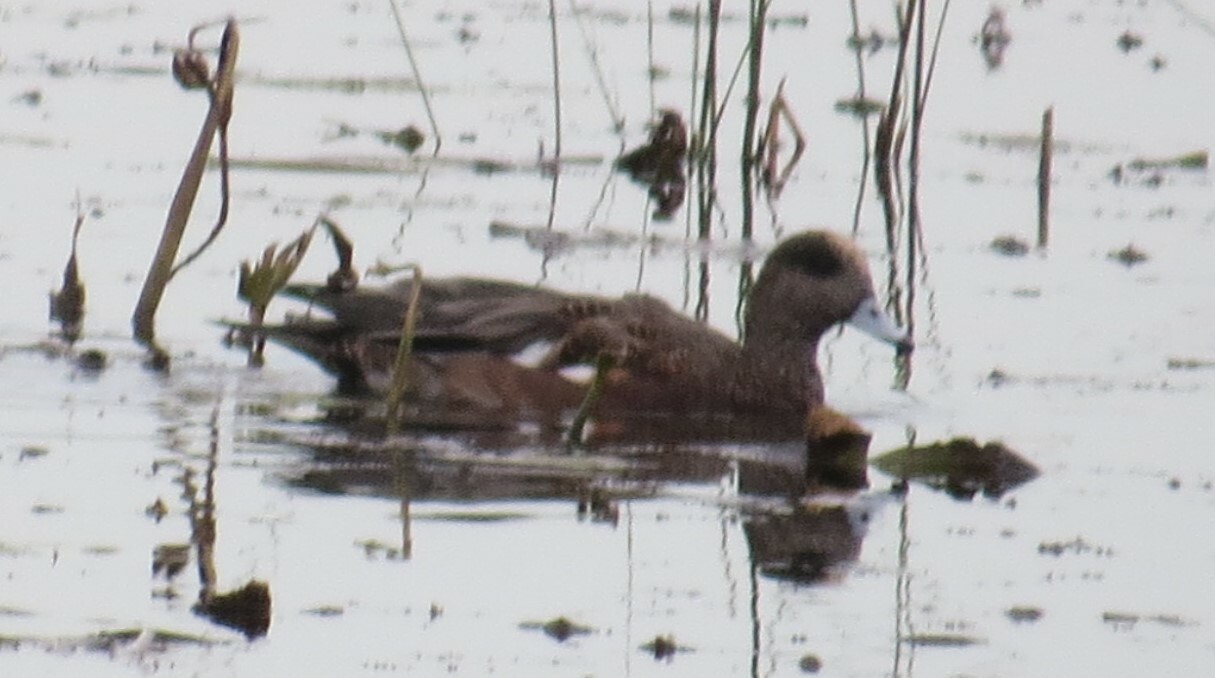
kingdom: Animalia
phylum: Chordata
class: Aves
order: Anseriformes
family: Anatidae
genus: Mareca
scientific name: Mareca americana
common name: American wigeon
